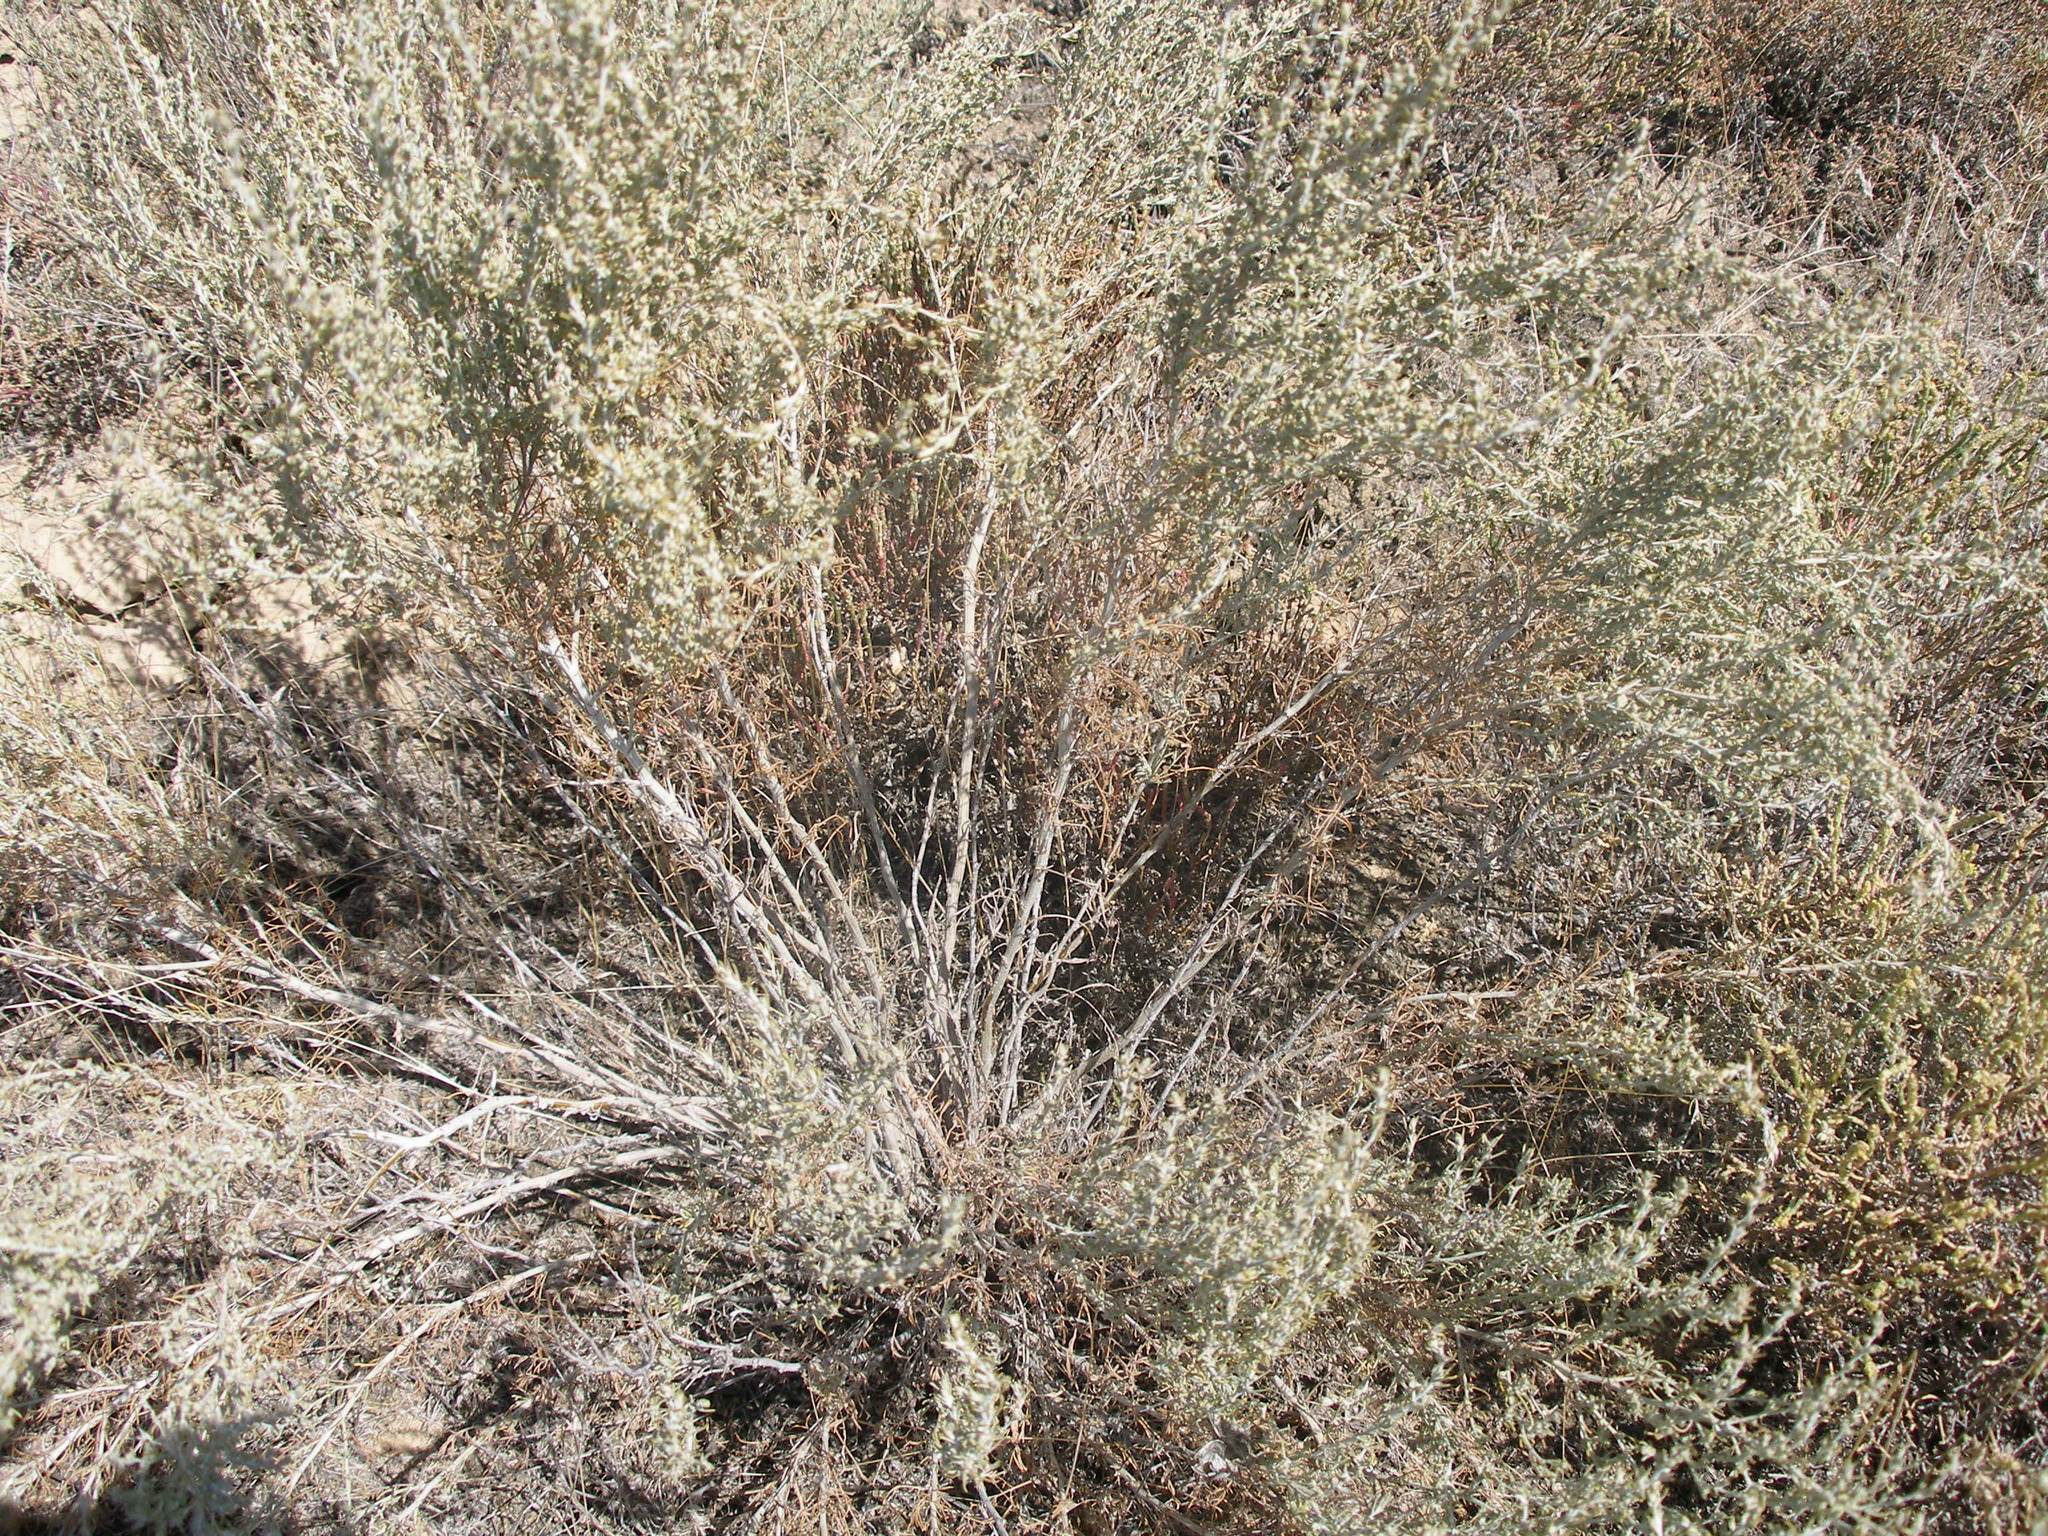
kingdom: Plantae
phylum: Tracheophyta
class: Magnoliopsida
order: Asterales
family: Asteraceae
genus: Artemisia
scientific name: Artemisia taurica
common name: Tauric wormwood
